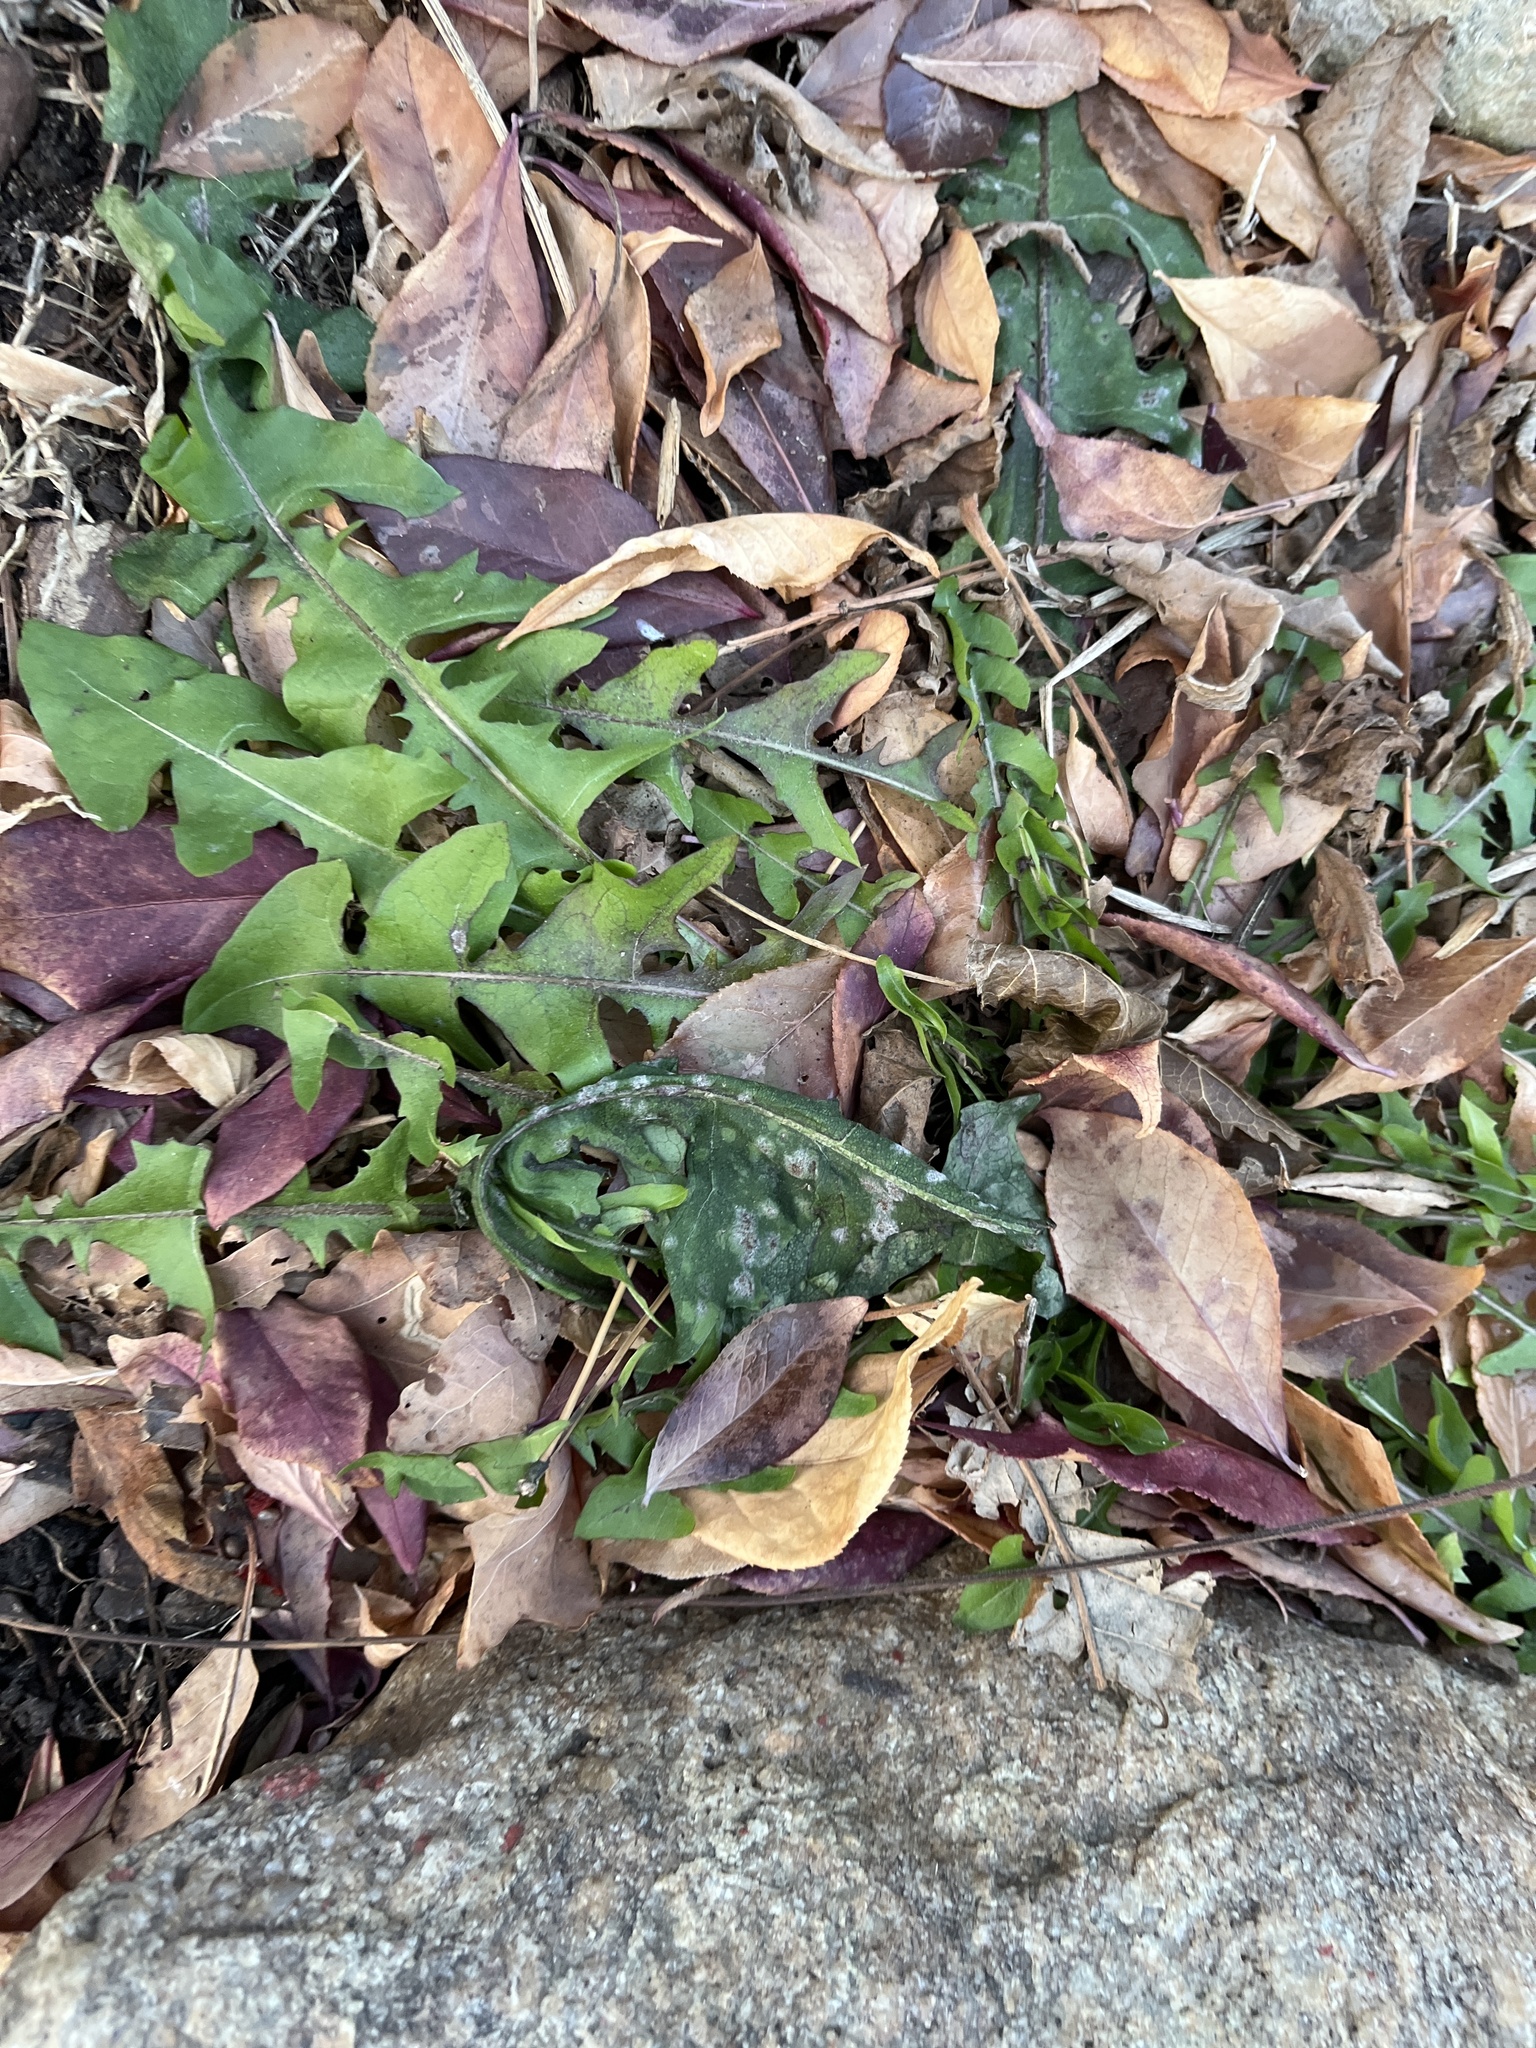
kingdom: Plantae
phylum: Tracheophyta
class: Magnoliopsida
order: Asterales
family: Asteraceae
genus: Taraxacum
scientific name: Taraxacum
